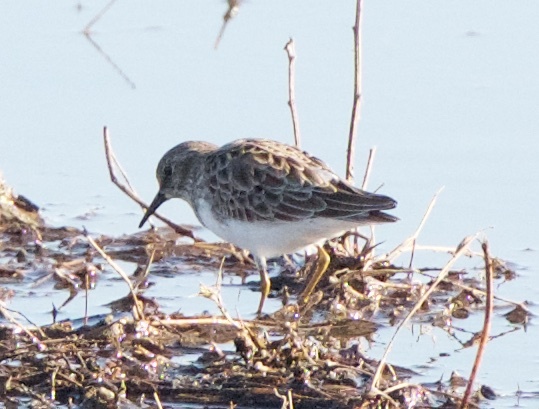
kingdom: Animalia
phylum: Chordata
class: Aves
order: Charadriiformes
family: Scolopacidae
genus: Calidris
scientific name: Calidris minutilla
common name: Least sandpiper
